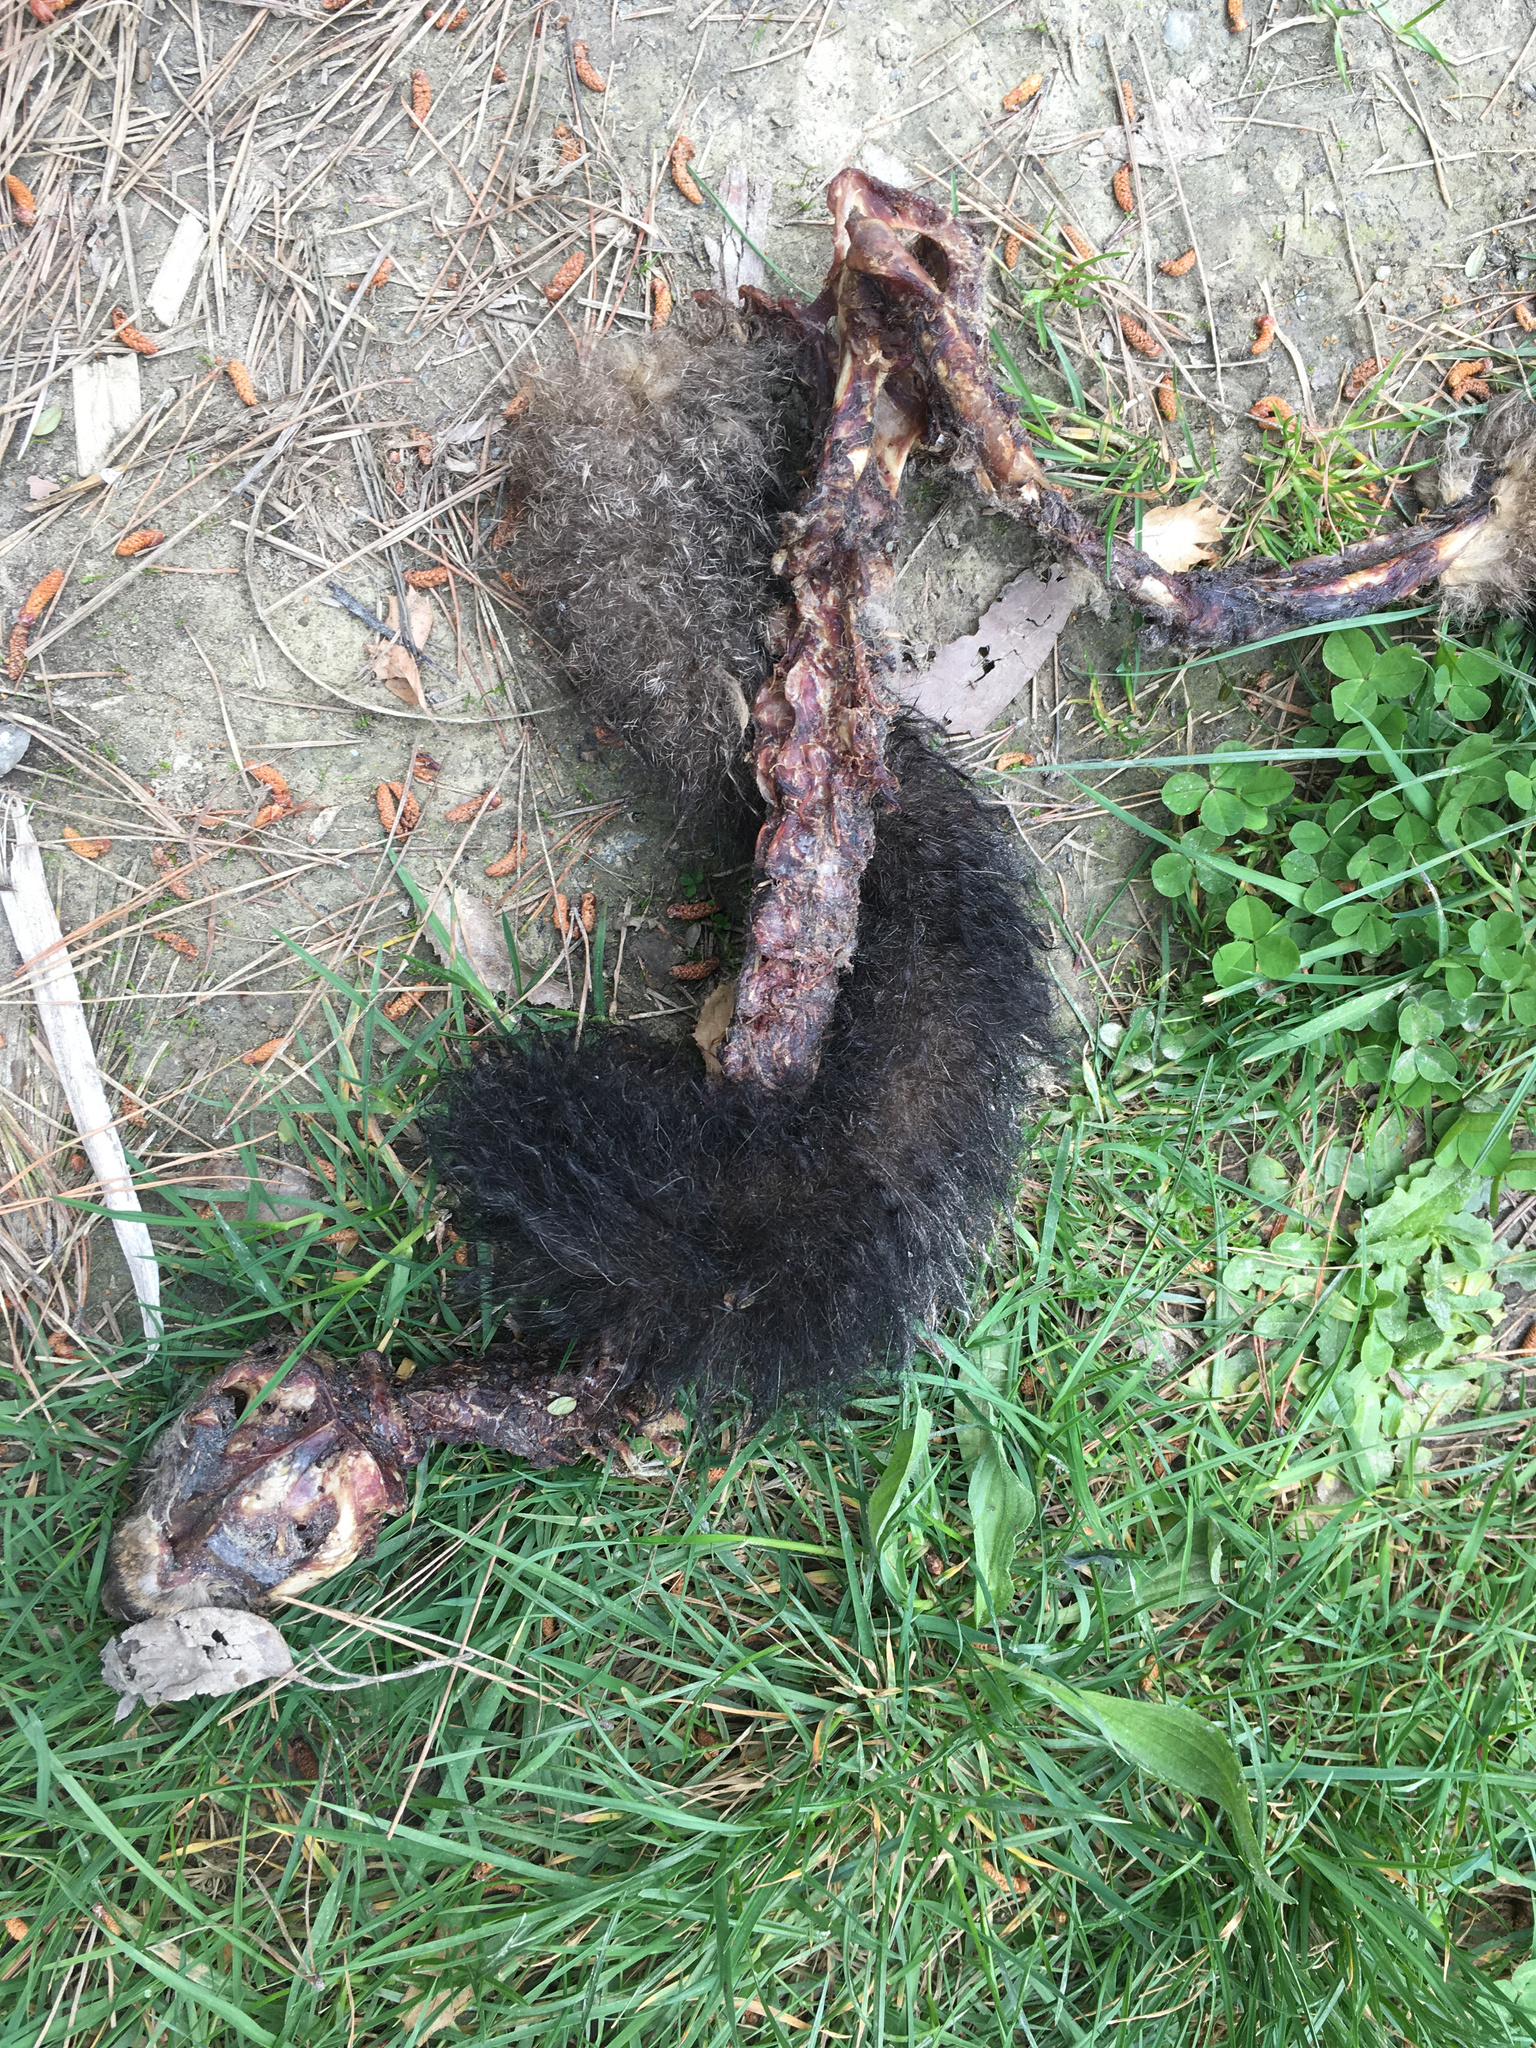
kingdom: Animalia
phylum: Chordata
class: Mammalia
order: Diprotodontia
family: Phalangeridae
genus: Trichosurus
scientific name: Trichosurus vulpecula
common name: Common brushtail
